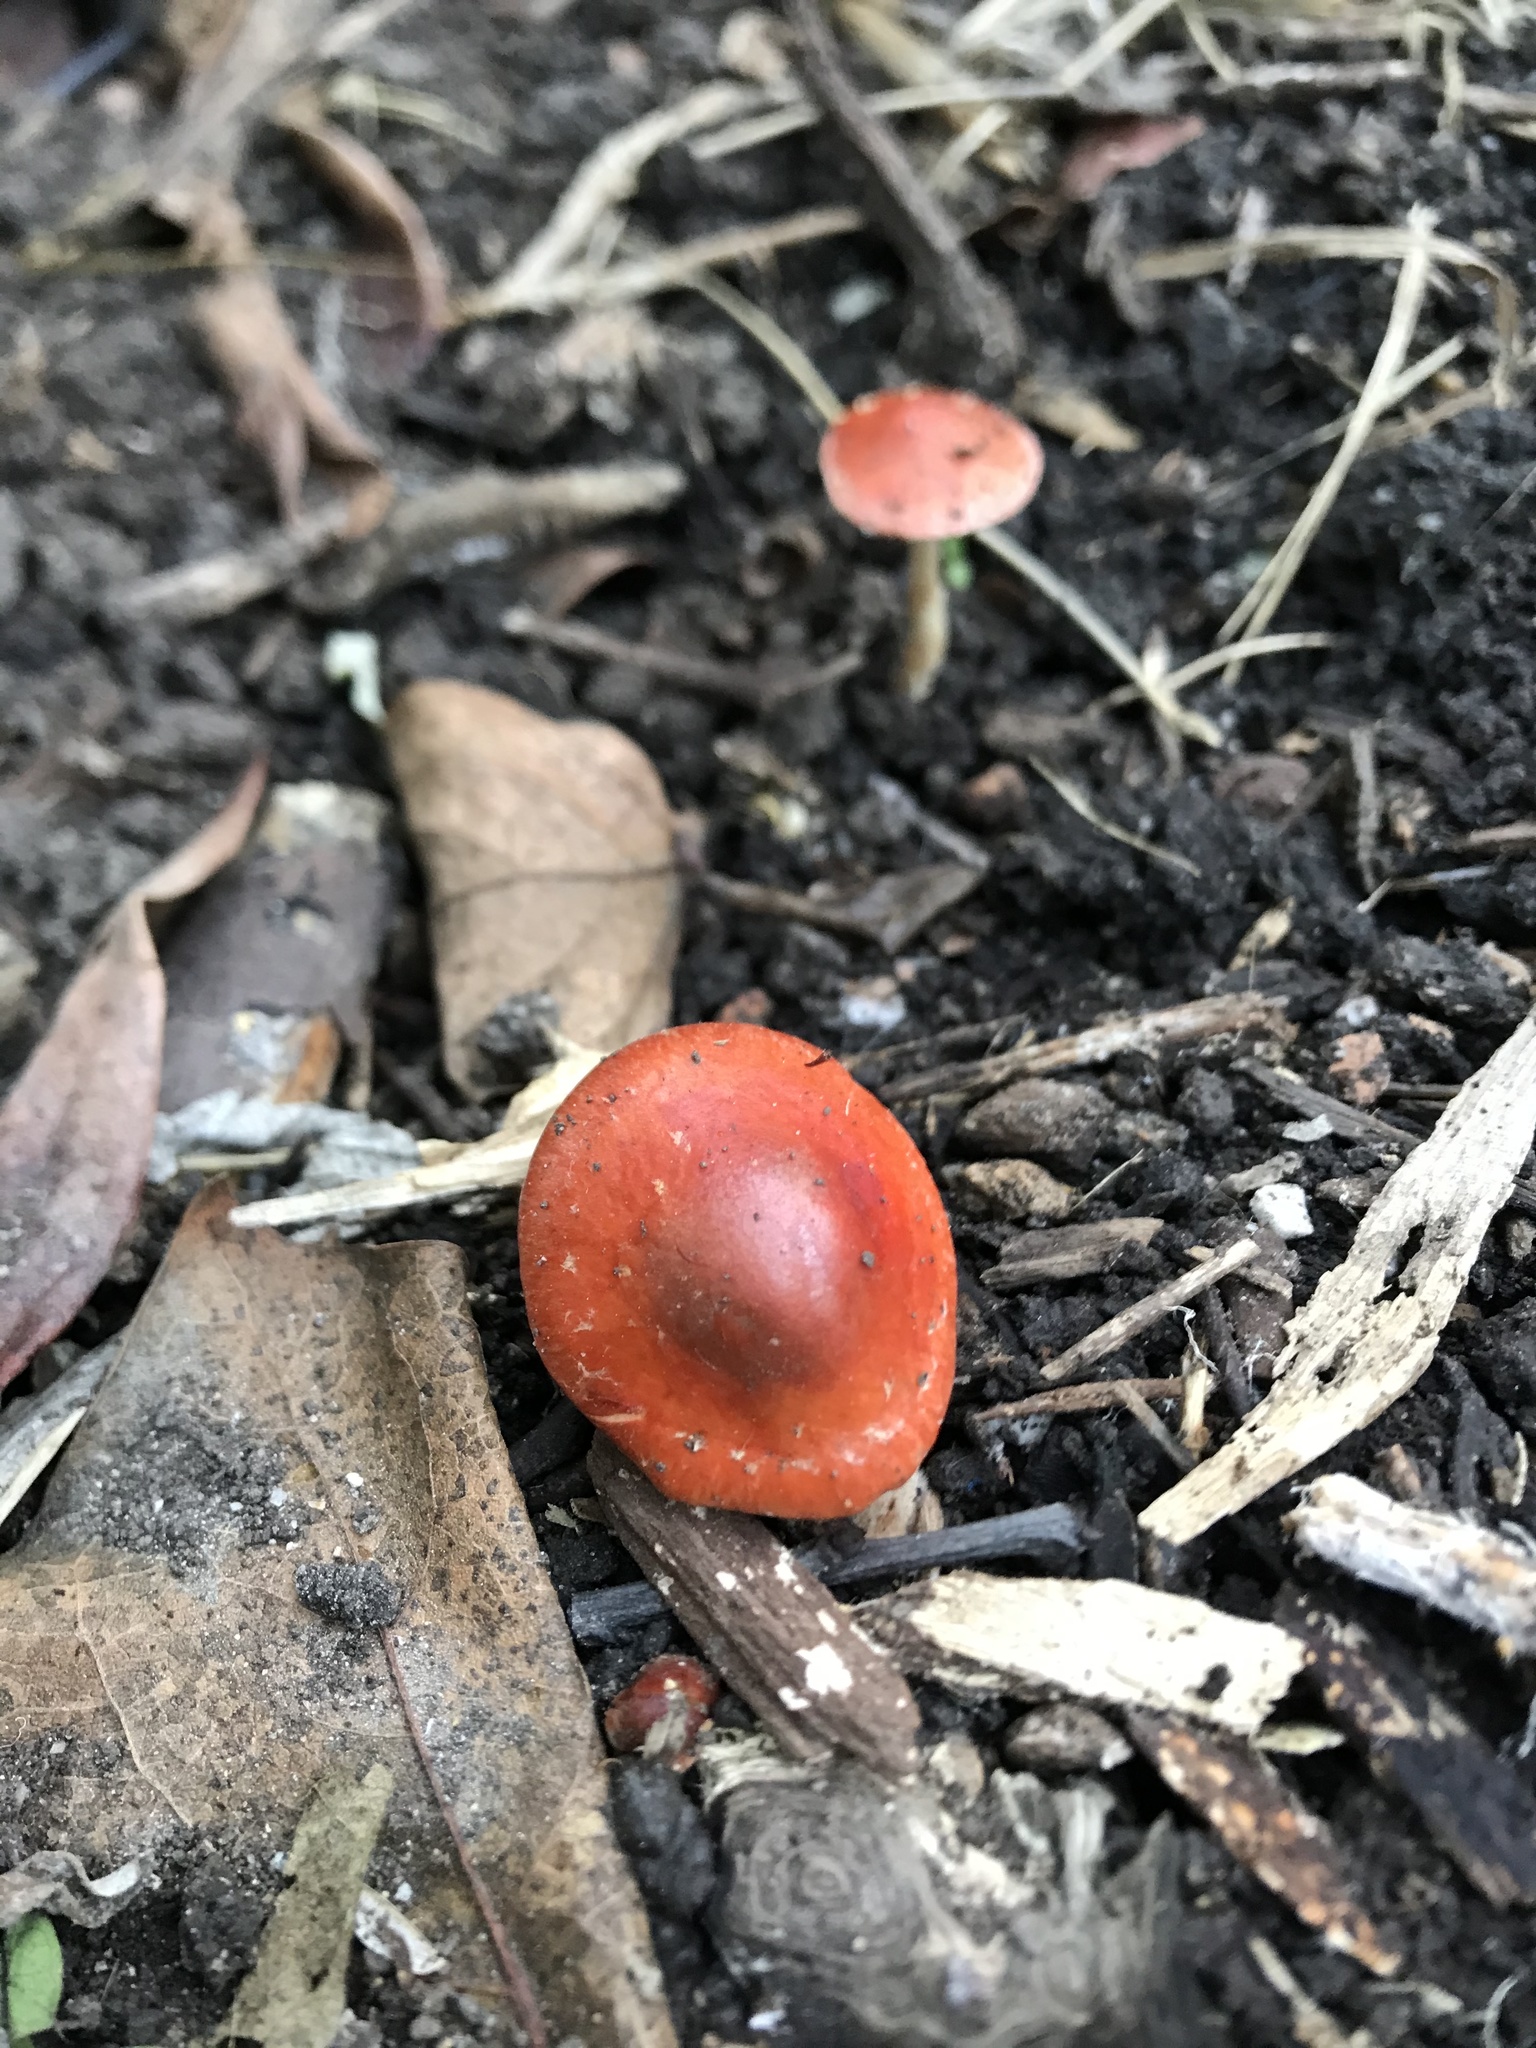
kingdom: Fungi
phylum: Basidiomycota
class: Agaricomycetes
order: Agaricales
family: Strophariaceae
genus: Leratiomyces
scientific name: Leratiomyces ceres
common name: Redlead roundhead
